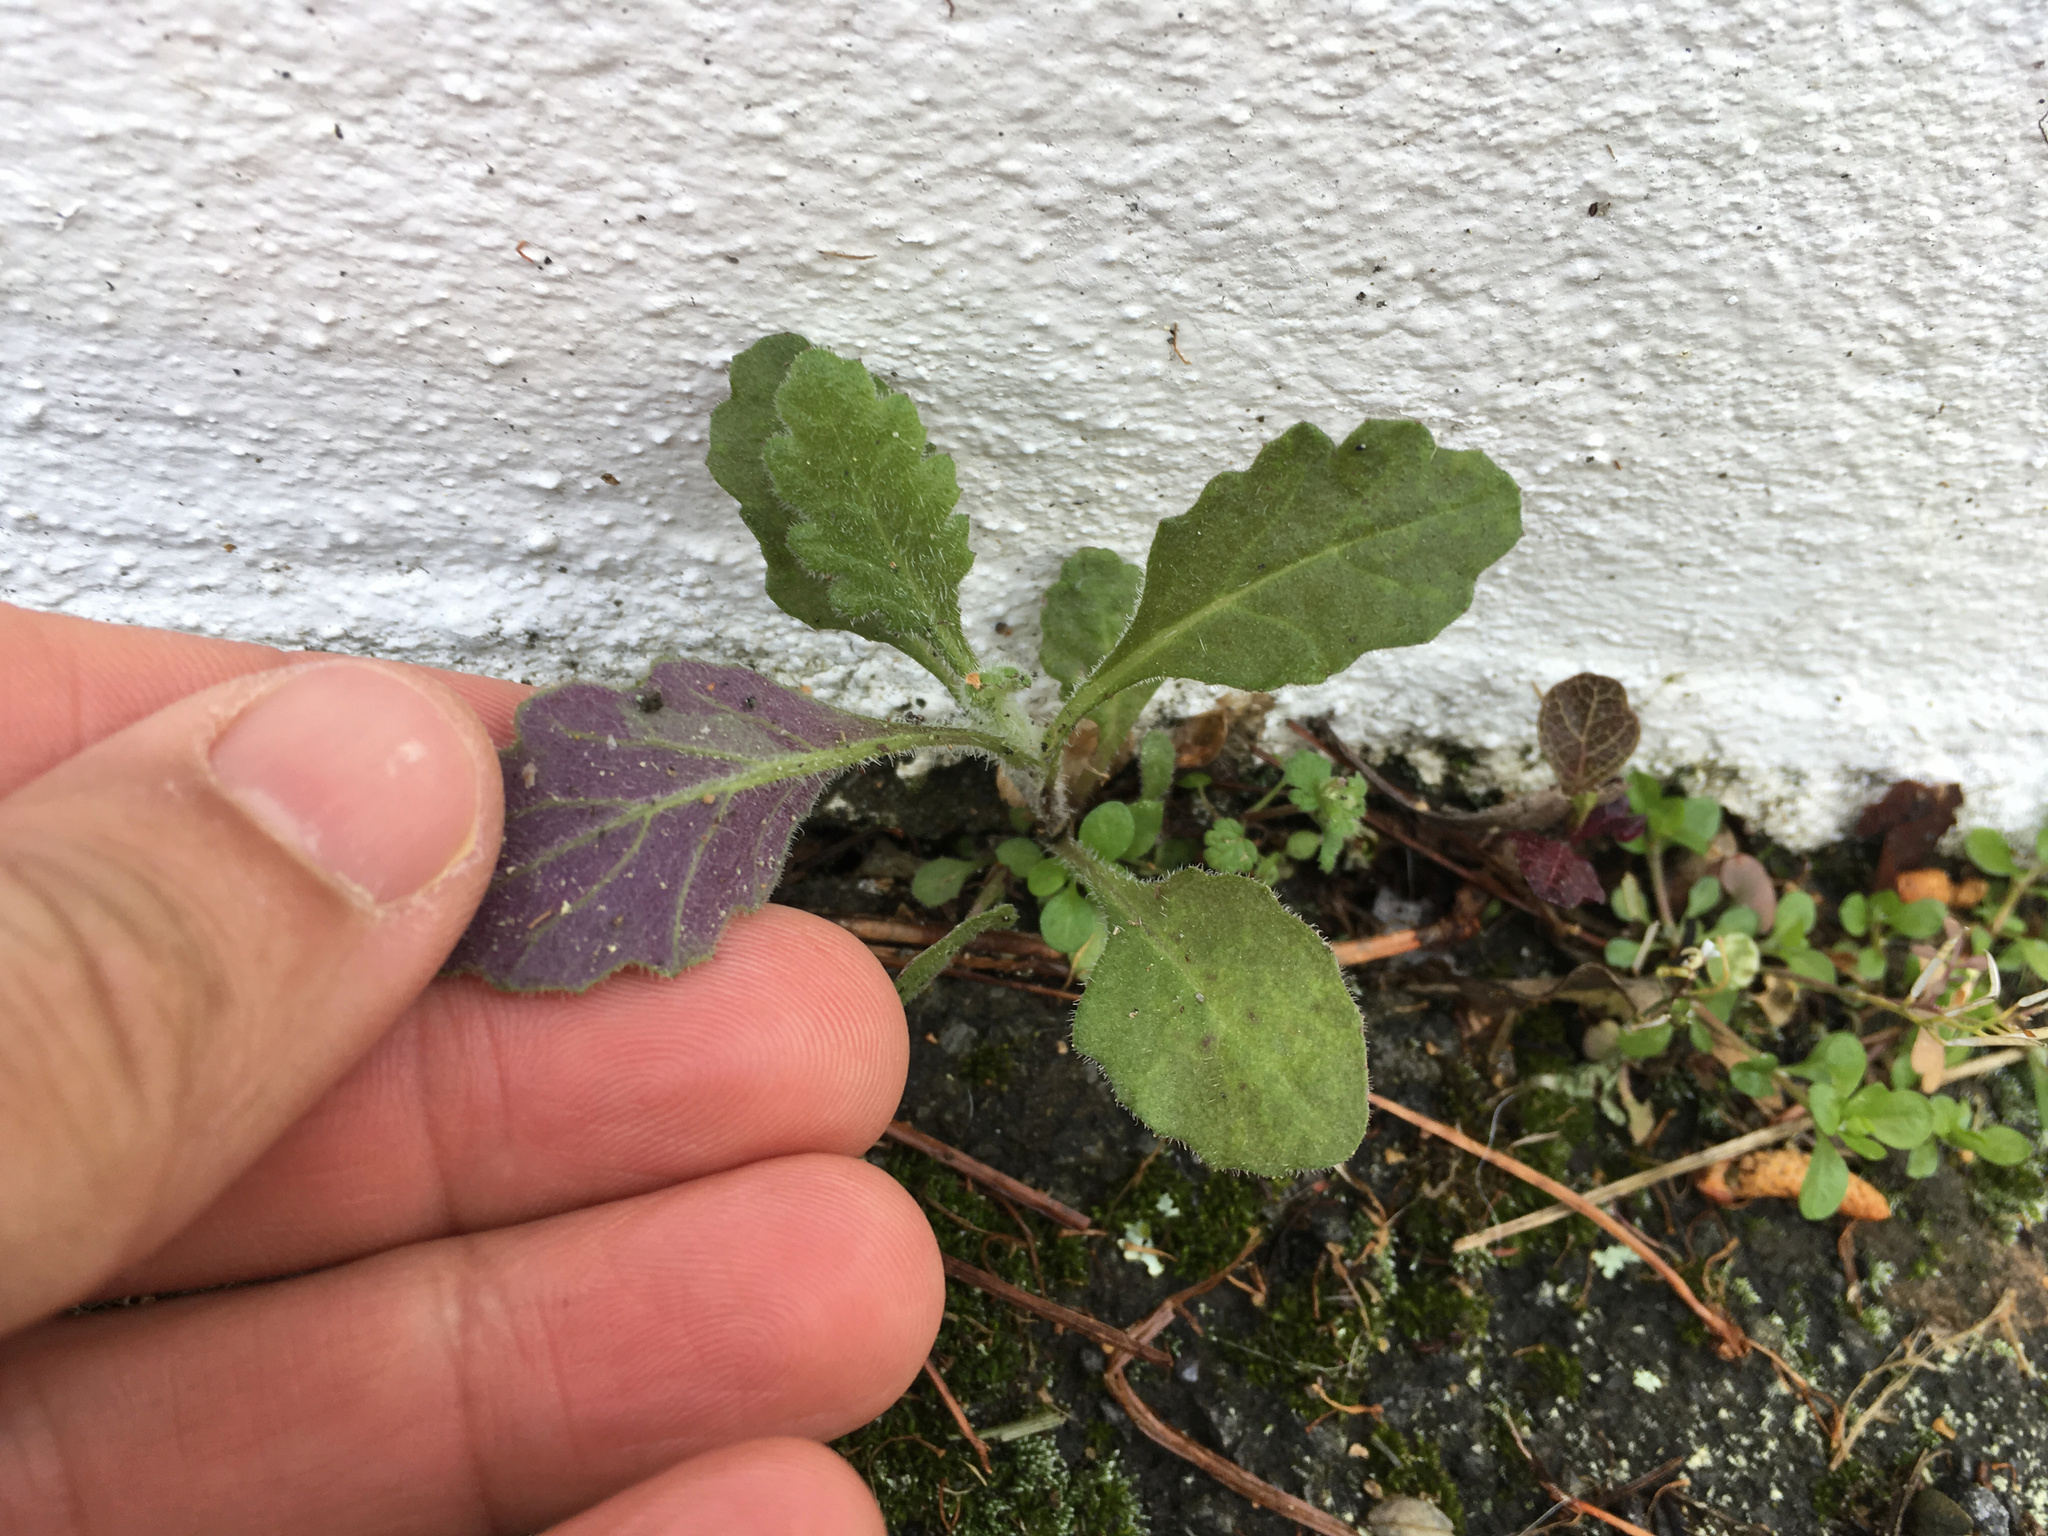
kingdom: Plantae
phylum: Tracheophyta
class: Magnoliopsida
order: Asterales
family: Asteraceae
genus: Senecio
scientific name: Senecio glomeratus
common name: Cutleaf burnweed
